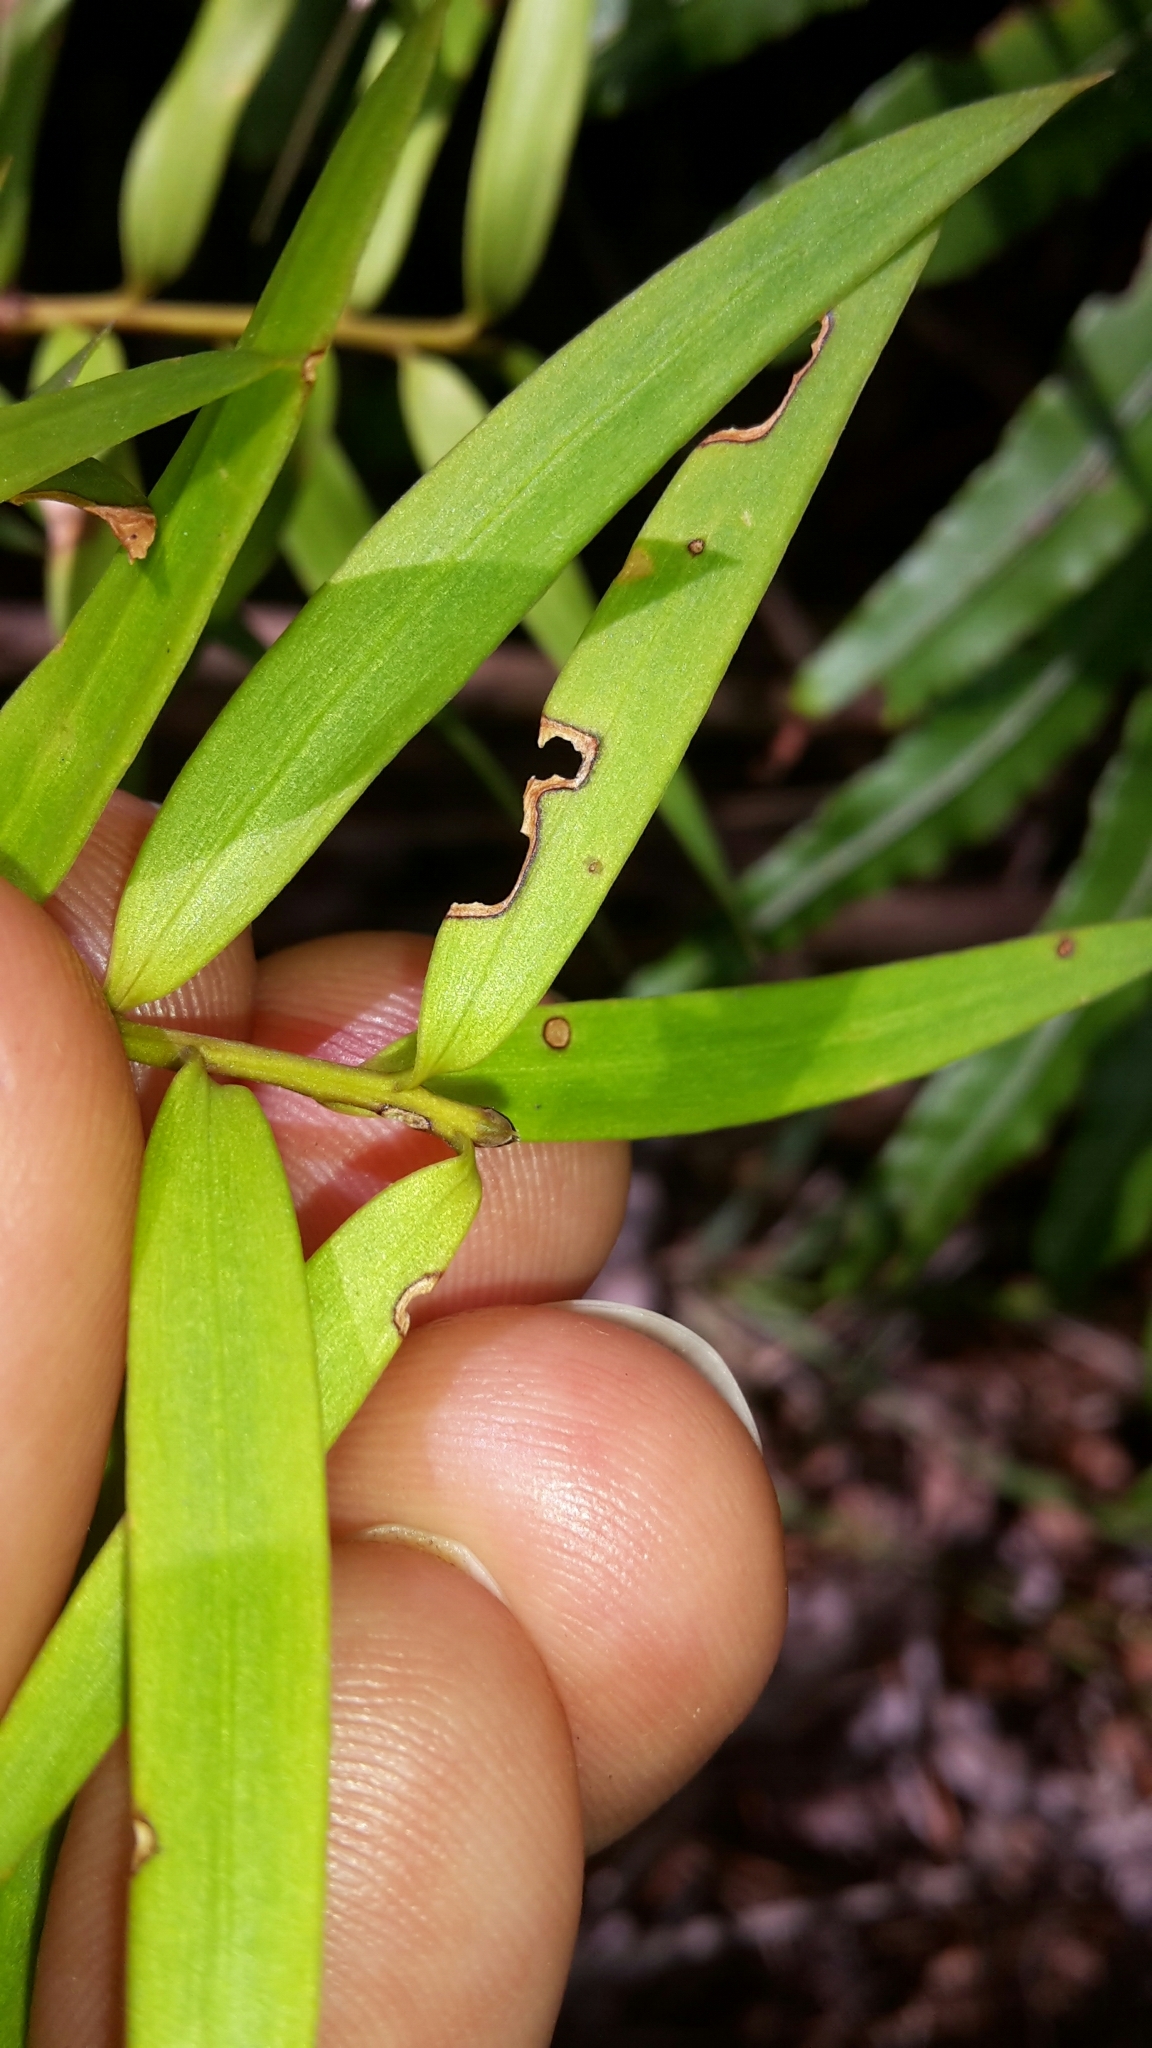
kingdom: Plantae
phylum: Tracheophyta
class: Pinopsida
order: Pinales
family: Podocarpaceae
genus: Podocarpus
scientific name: Podocarpus laetus
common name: Hall's totara
